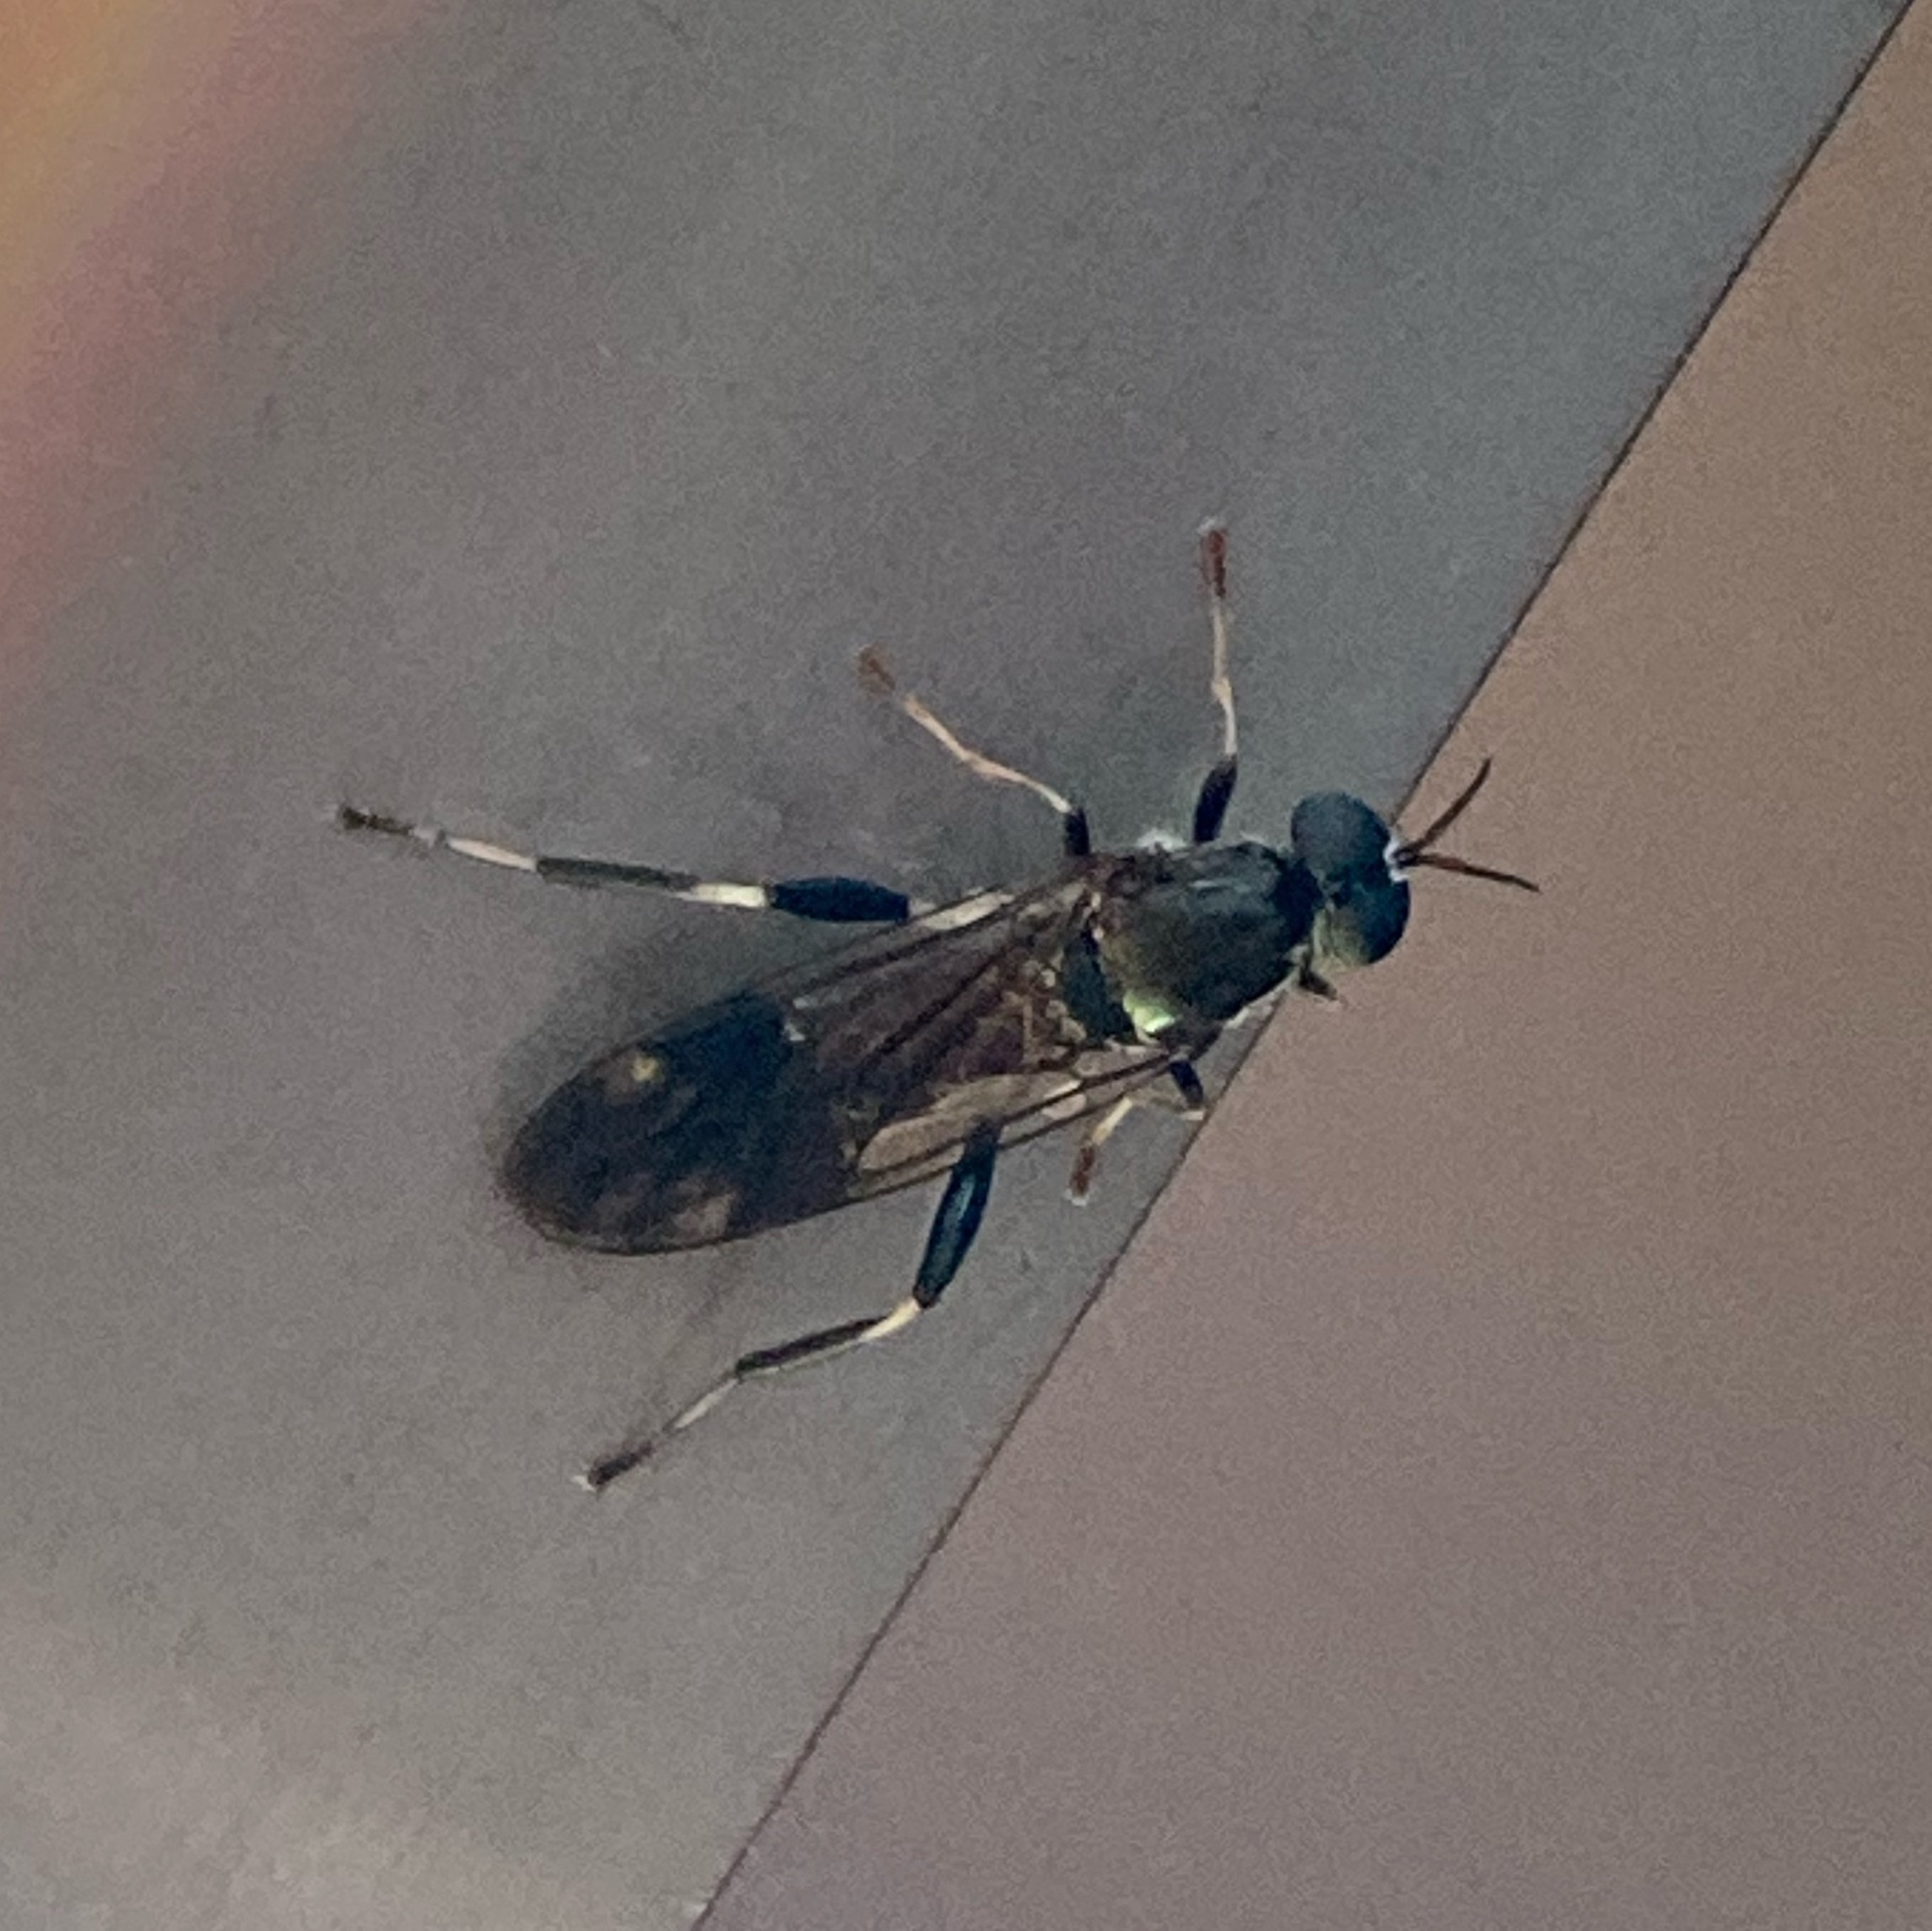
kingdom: Animalia
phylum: Arthropoda
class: Insecta
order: Diptera
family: Stratiomyidae
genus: Exaireta
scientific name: Exaireta spinigera
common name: Blue soldier fly
